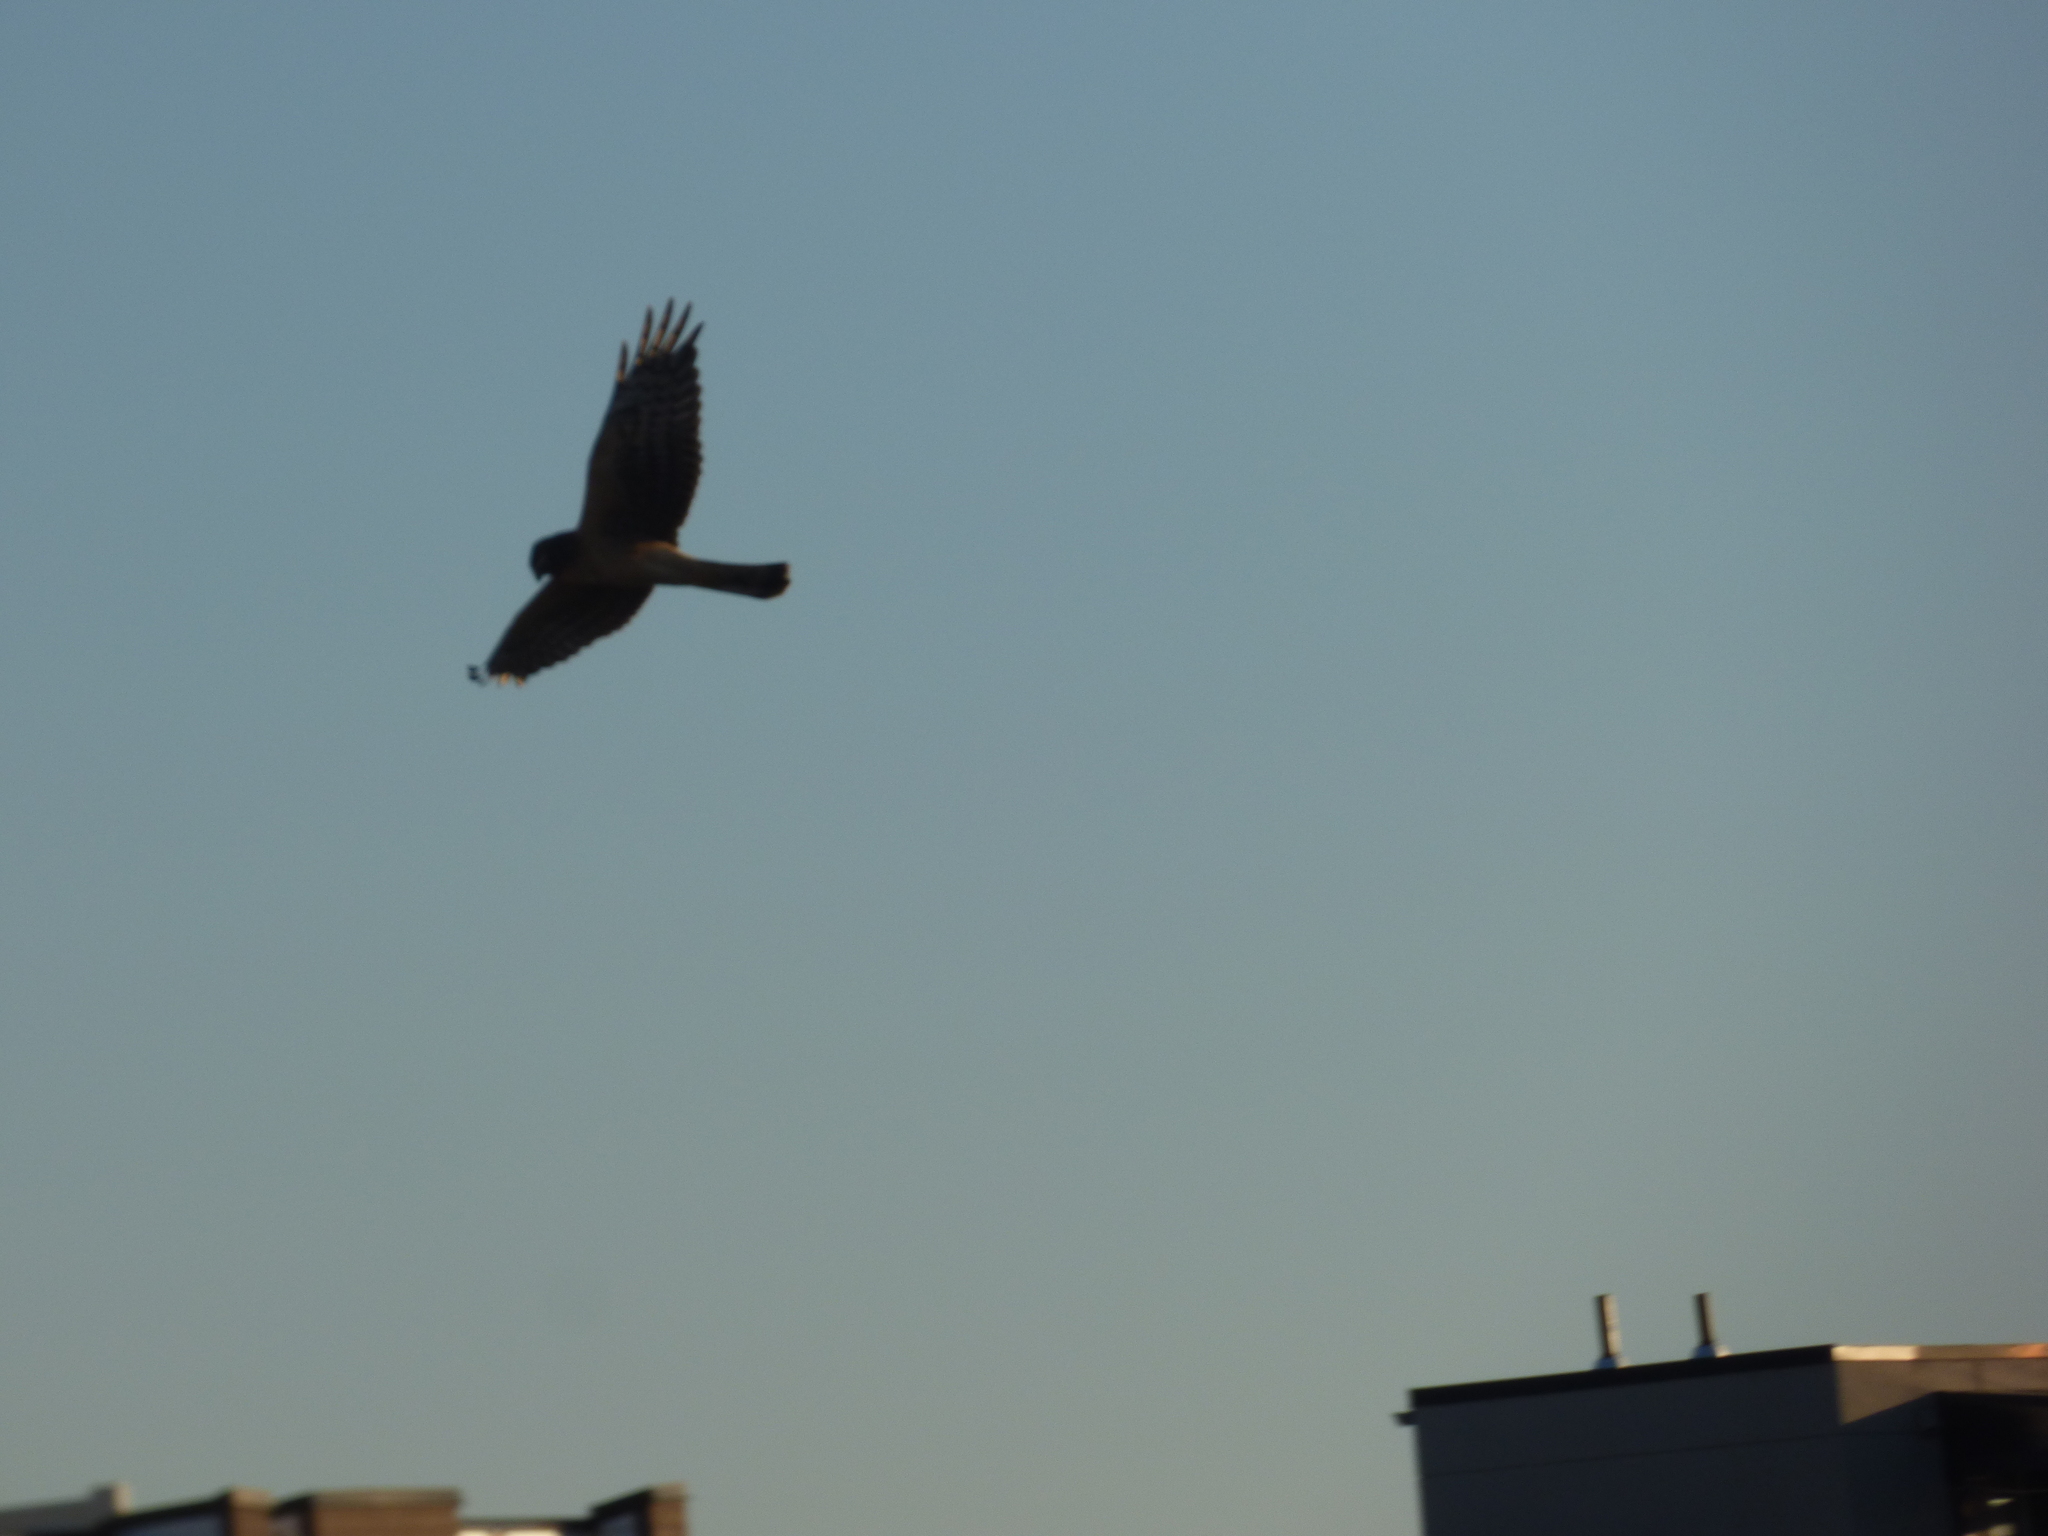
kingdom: Animalia
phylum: Chordata
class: Aves
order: Accipitriformes
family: Accipitridae
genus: Circus
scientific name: Circus cyaneus
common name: Hen harrier
